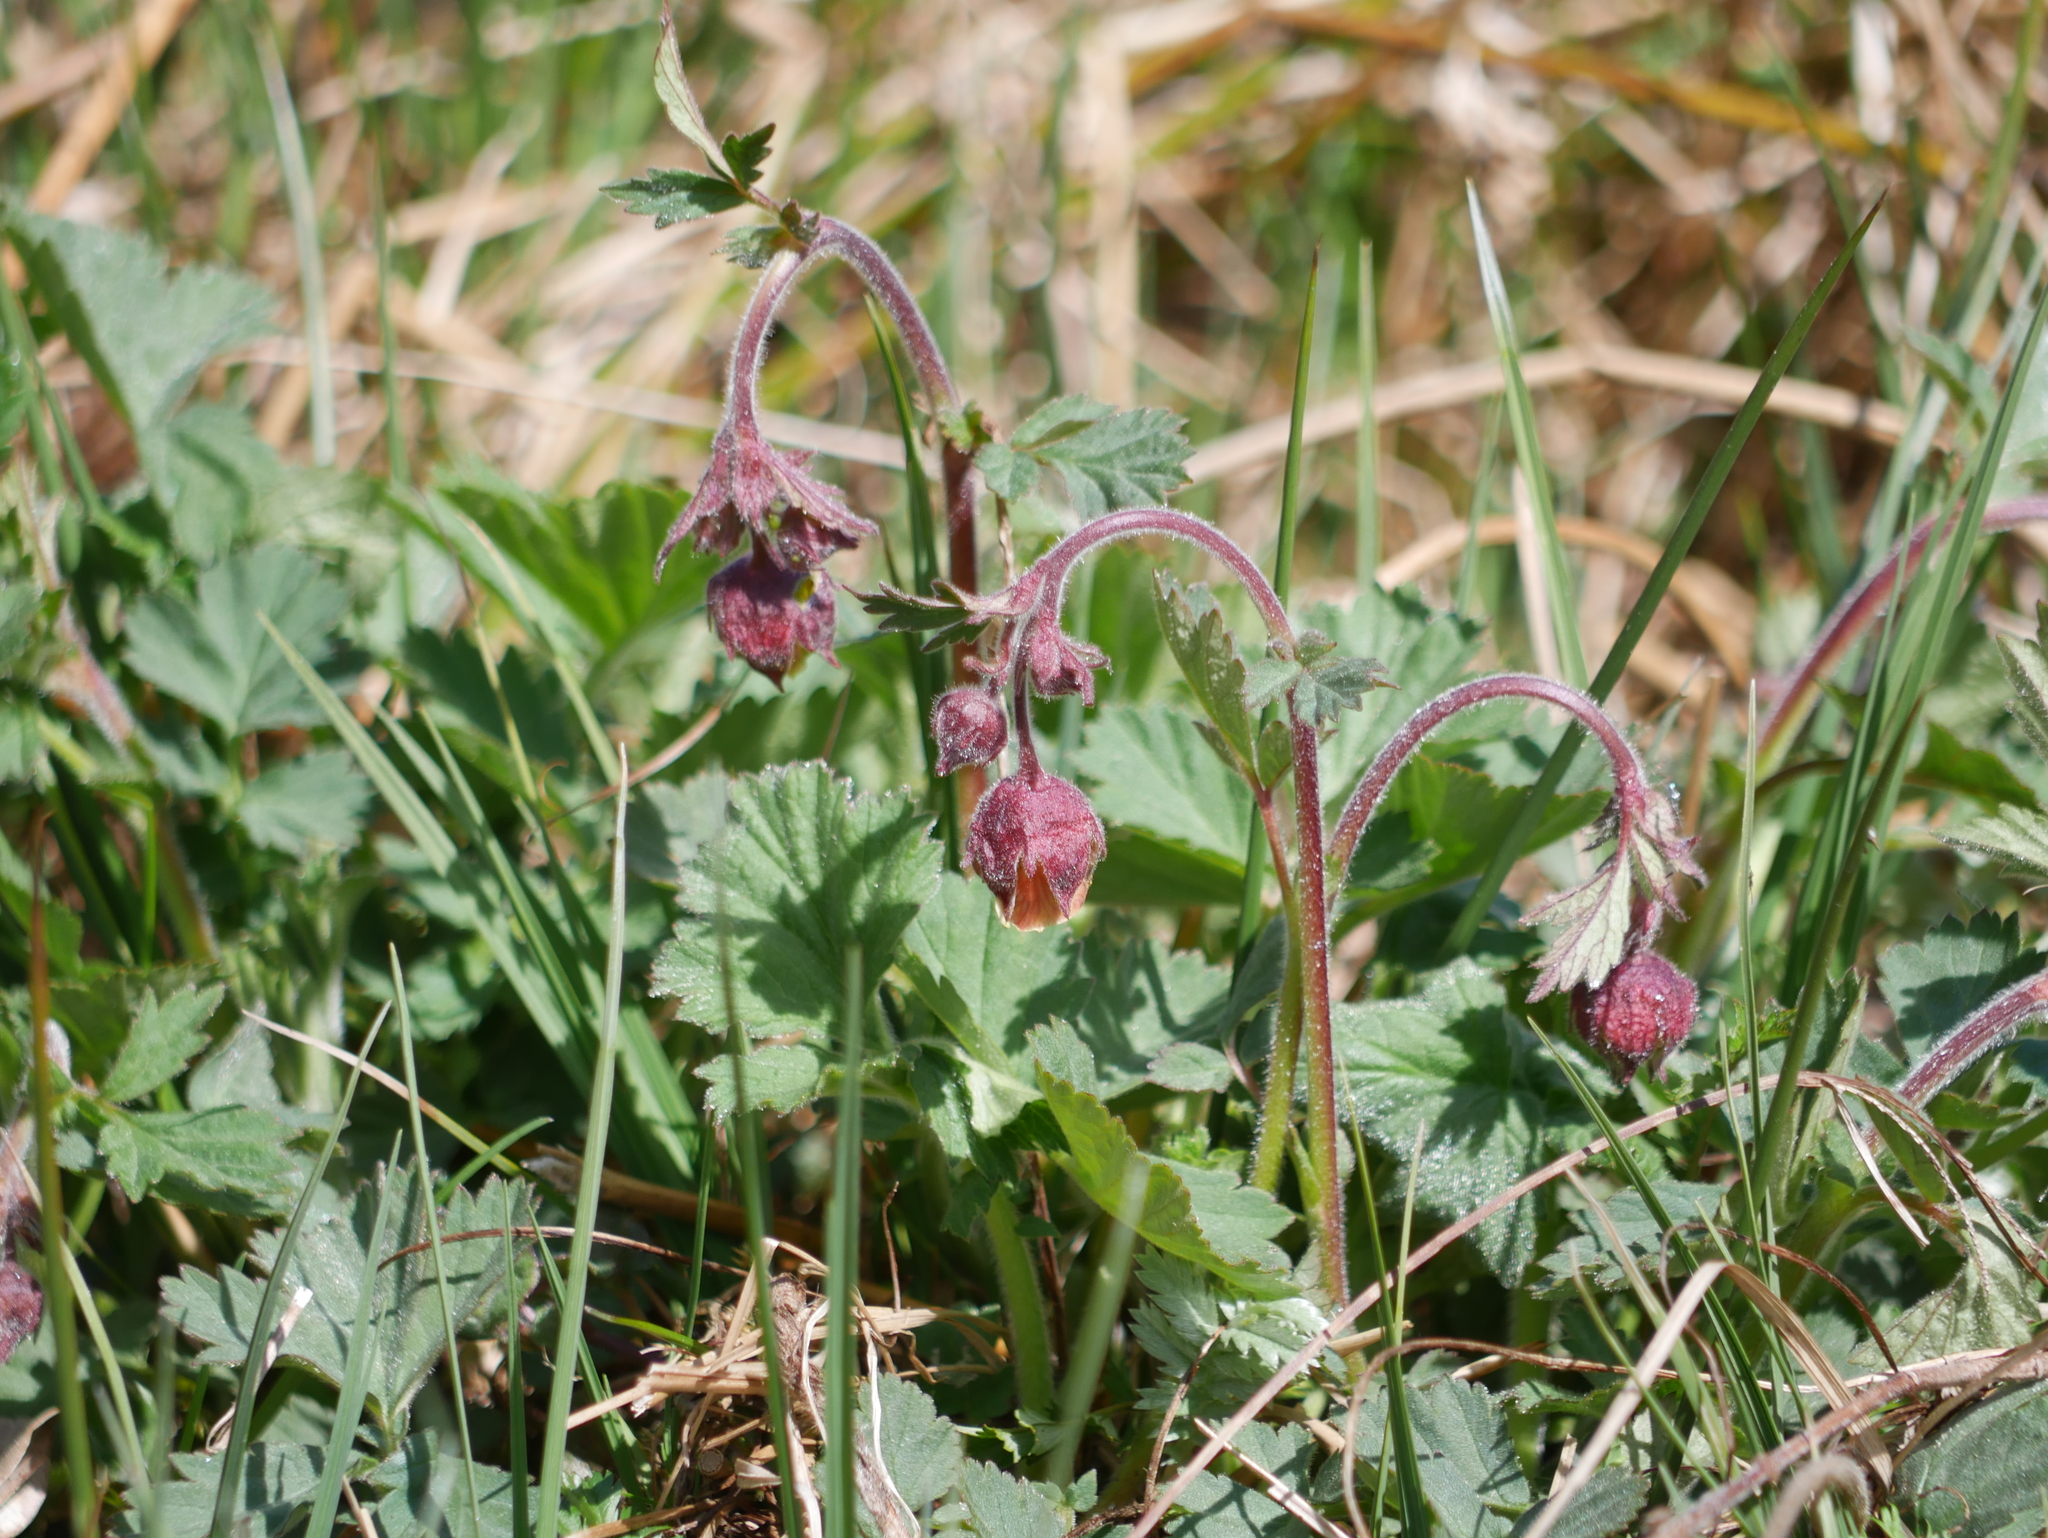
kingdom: Plantae
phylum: Tracheophyta
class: Magnoliopsida
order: Rosales
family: Rosaceae
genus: Geum
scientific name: Geum rivale
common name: Water avens
